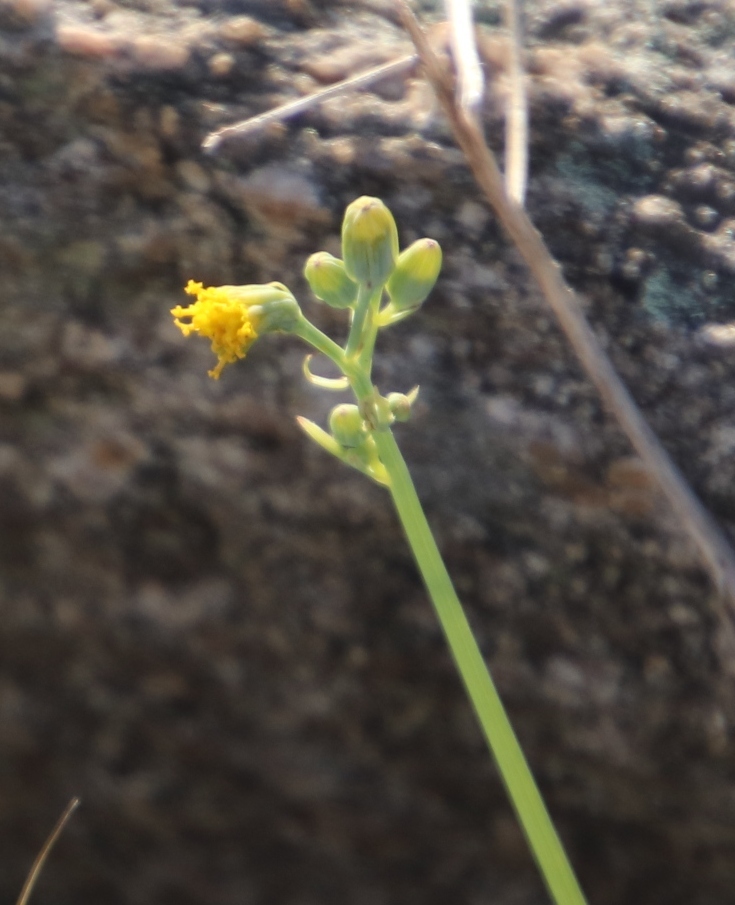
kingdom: Plantae
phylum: Tracheophyta
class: Magnoliopsida
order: Asterales
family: Asteraceae
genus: Senecio
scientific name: Senecio oxyriifolius
